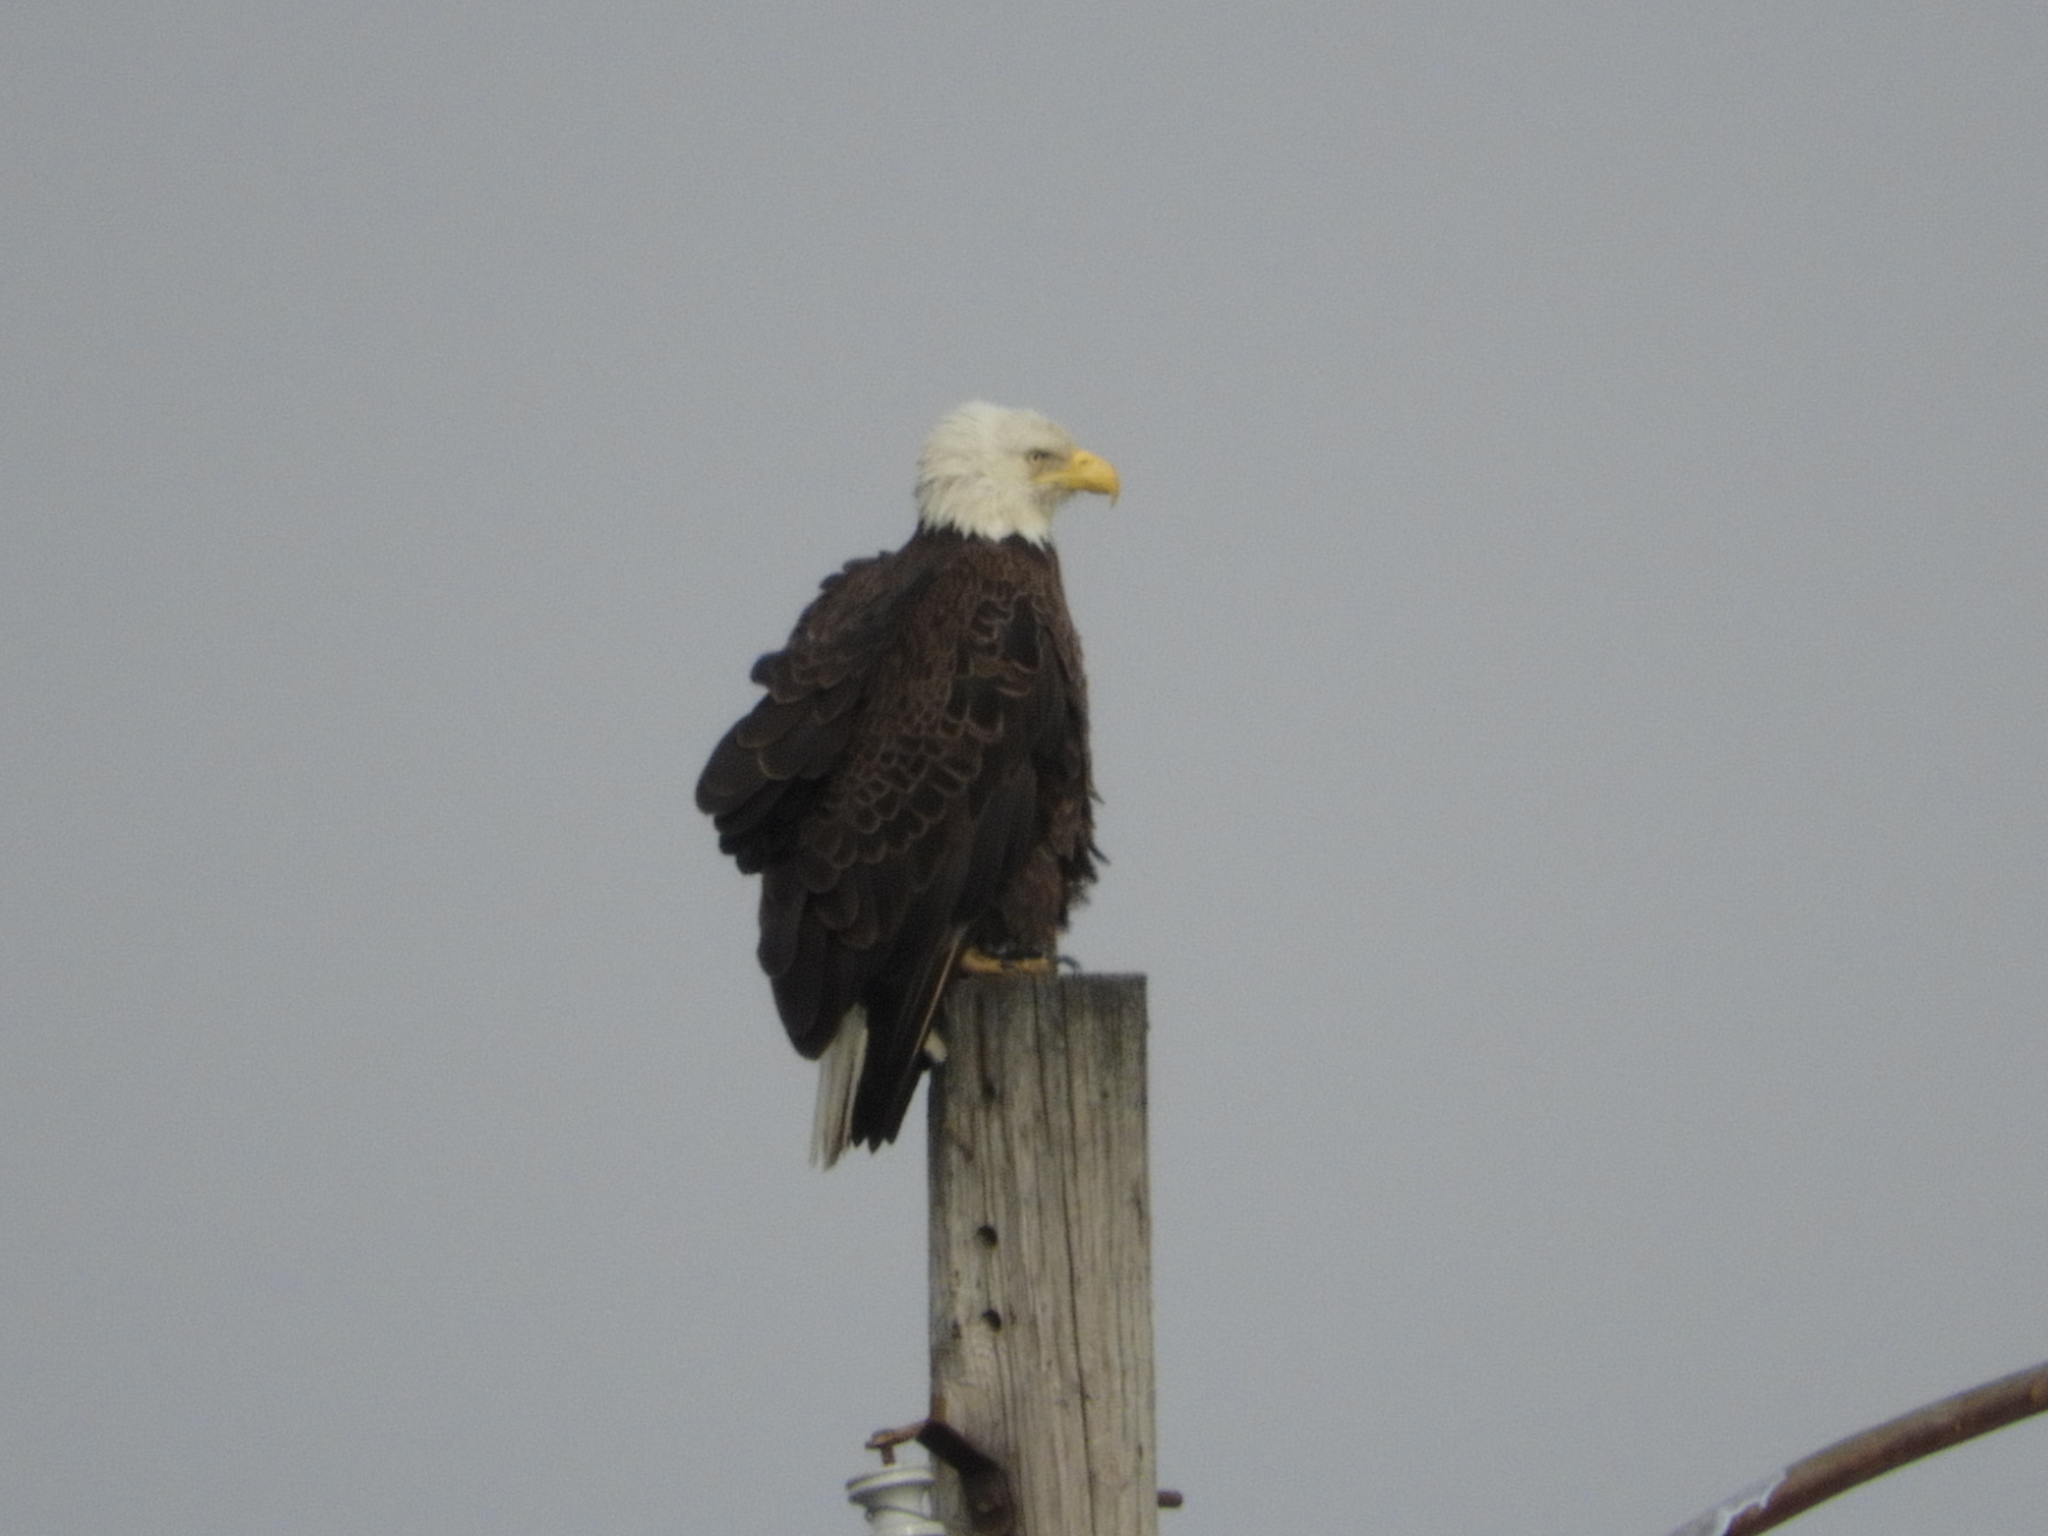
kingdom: Animalia
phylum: Chordata
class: Aves
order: Accipitriformes
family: Accipitridae
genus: Haliaeetus
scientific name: Haliaeetus leucocephalus
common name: Bald eagle
